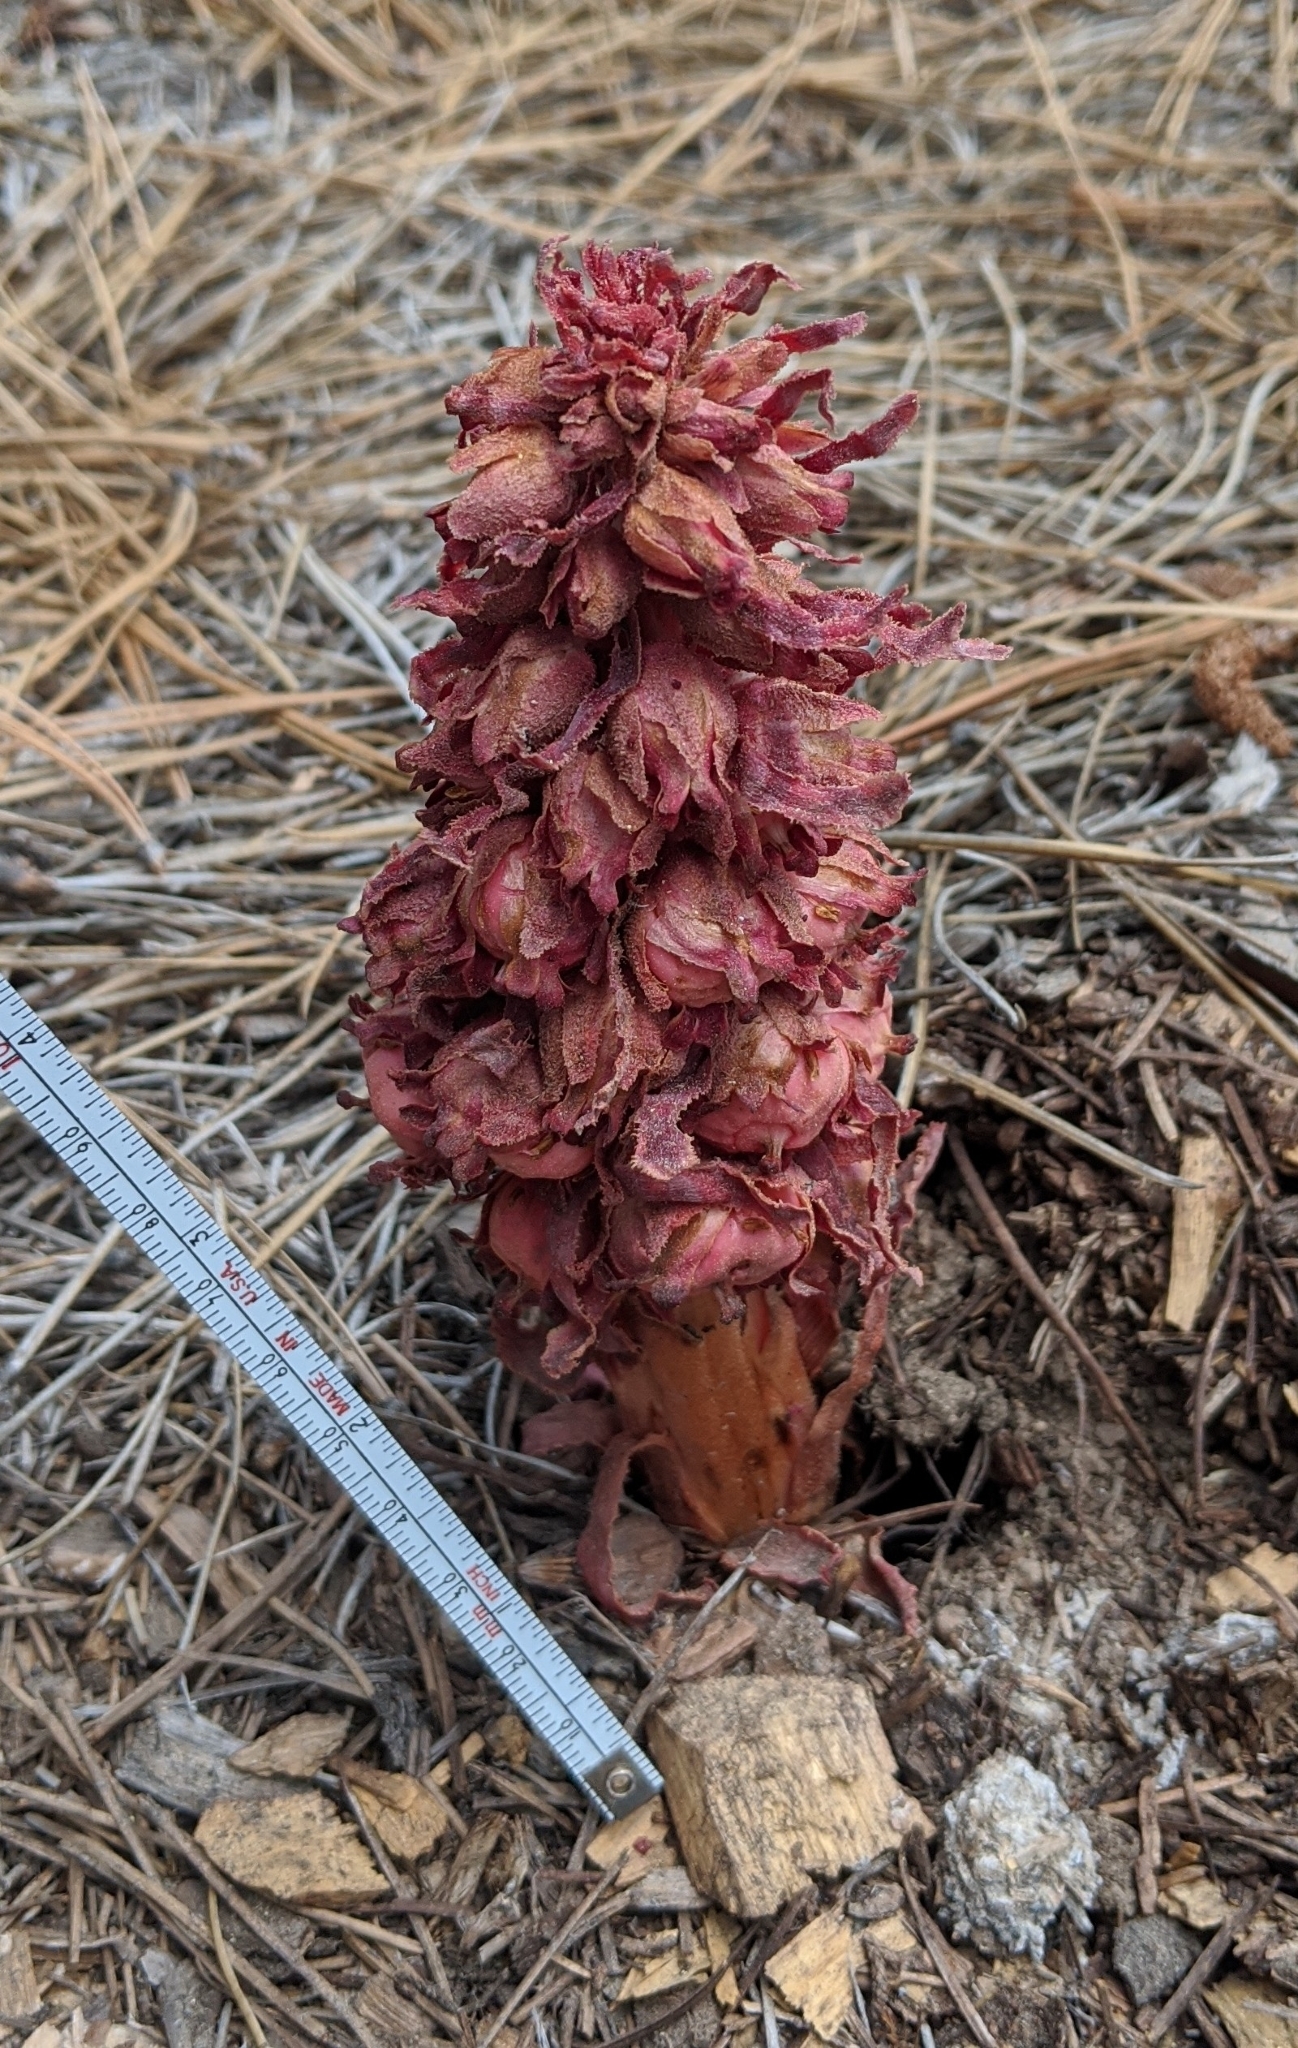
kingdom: Plantae
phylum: Tracheophyta
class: Magnoliopsida
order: Ericales
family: Ericaceae
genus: Sarcodes
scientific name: Sarcodes sanguinea
